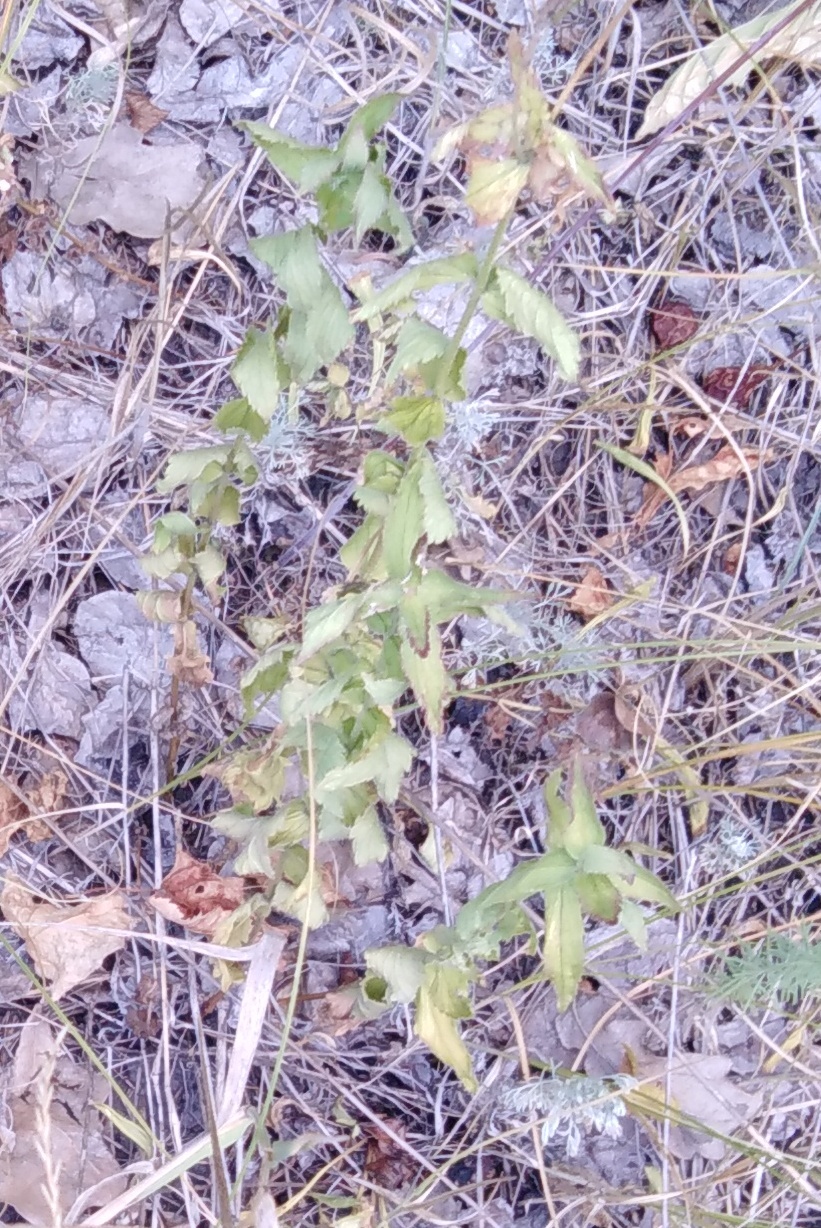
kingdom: Plantae
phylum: Tracheophyta
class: Magnoliopsida
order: Lamiales
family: Plantaginaceae
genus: Veronica
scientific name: Veronica teucrium
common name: Large speedwell
